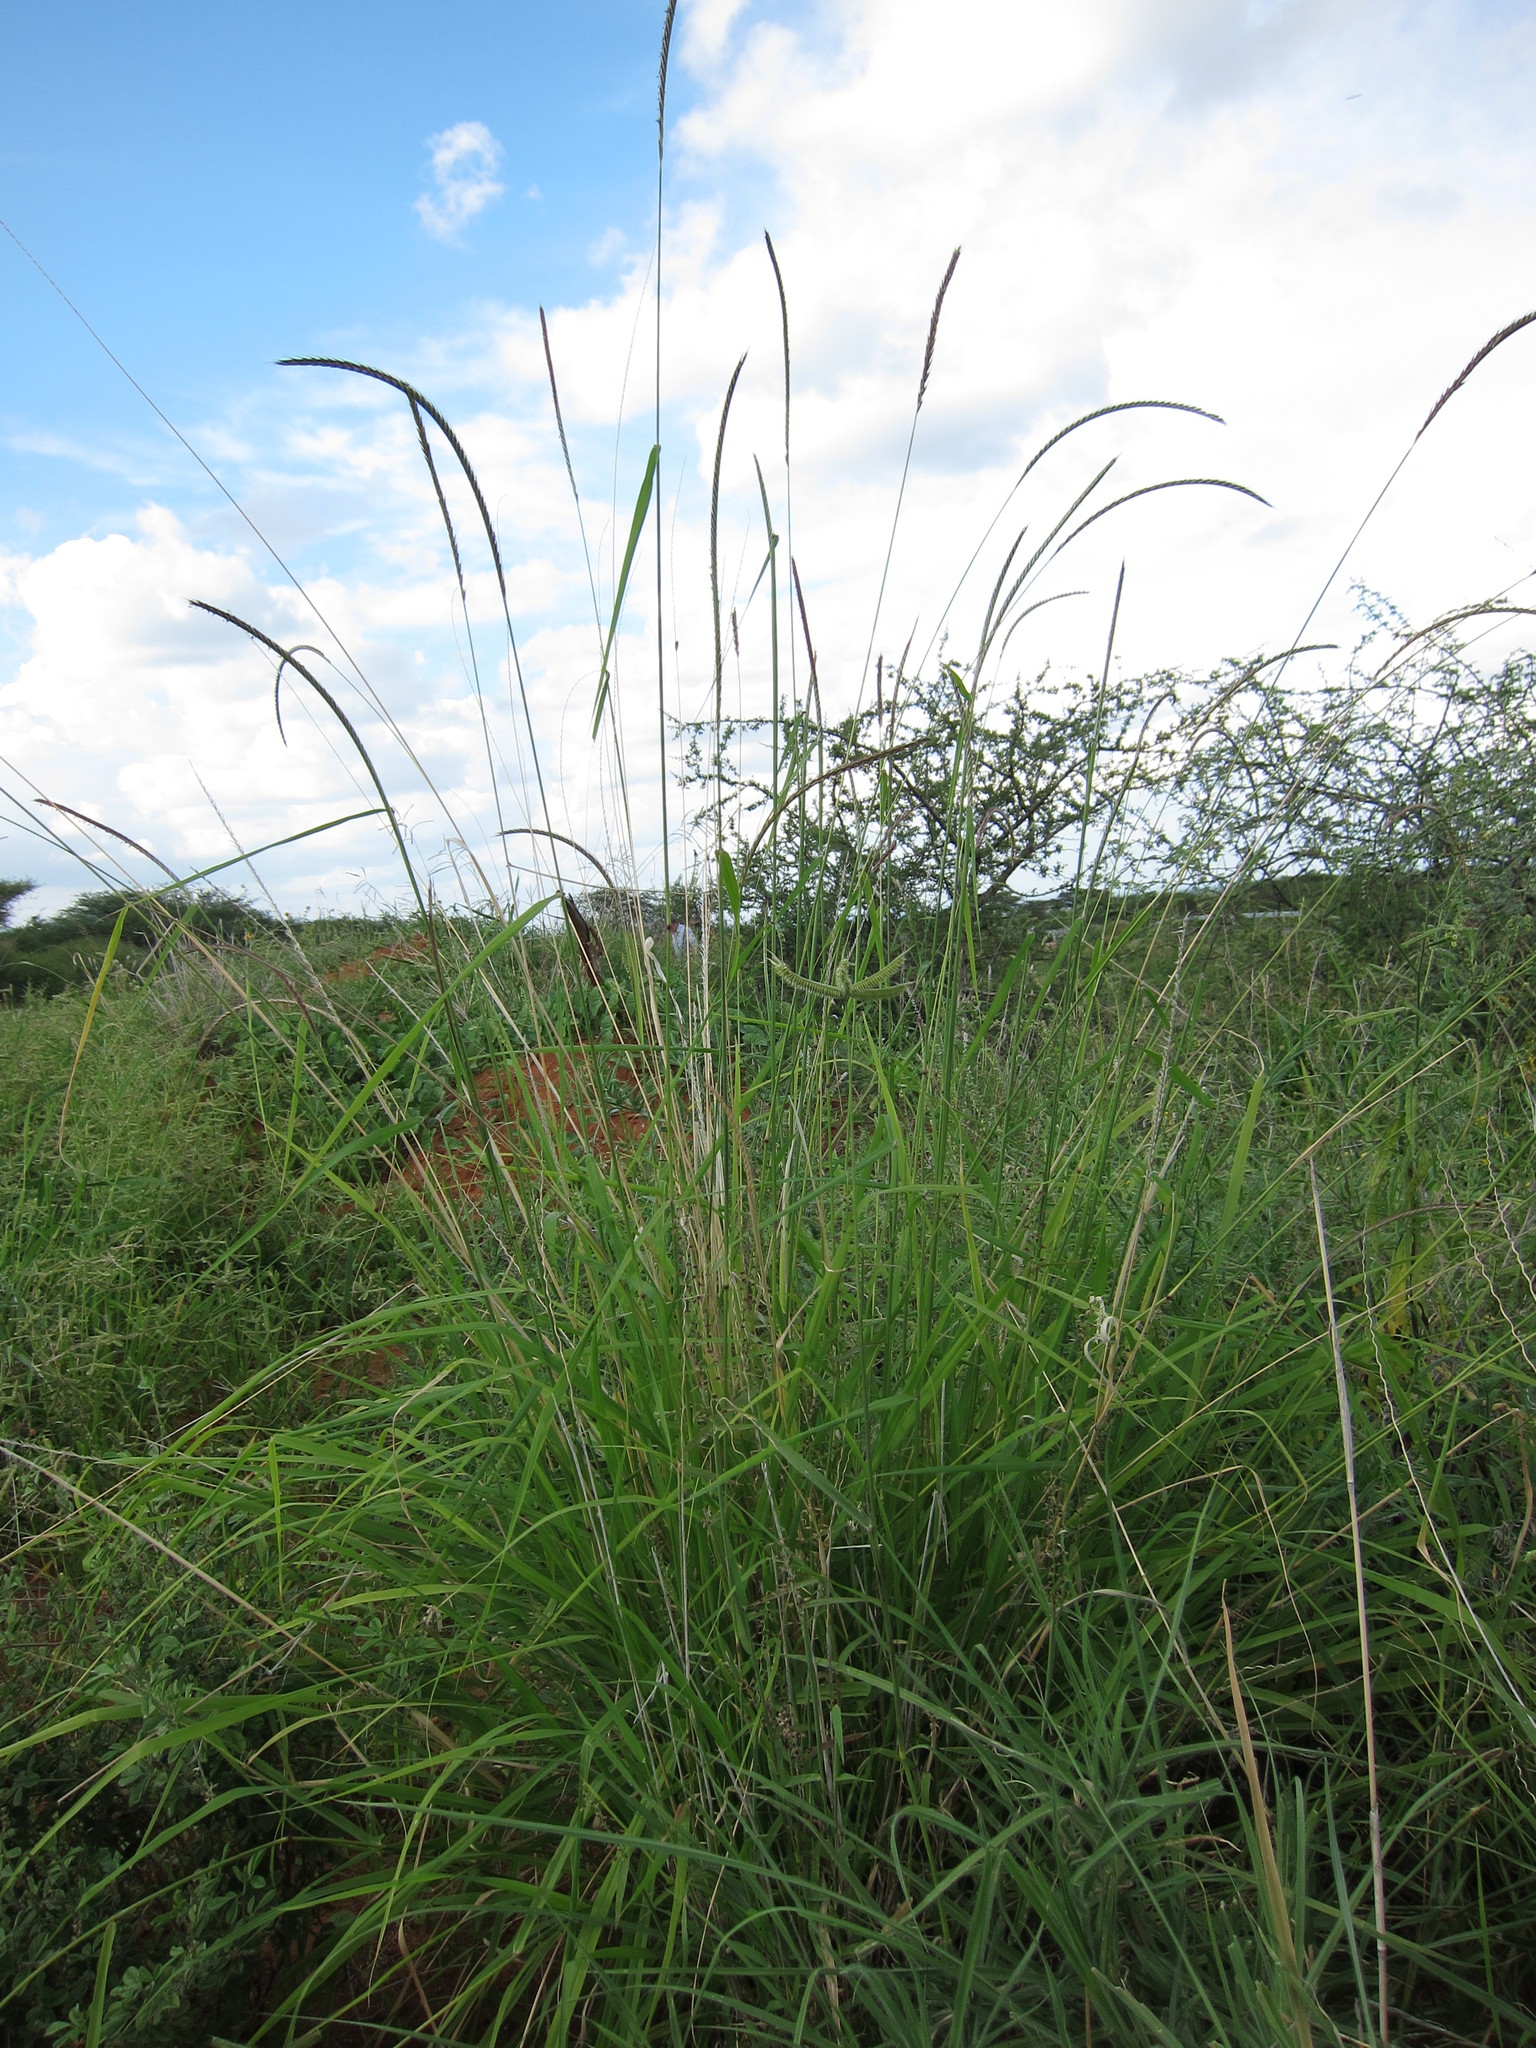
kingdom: Plantae
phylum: Tracheophyta
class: Liliopsida
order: Poales
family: Poaceae
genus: Enteropogon
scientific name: Enteropogon macrostachyus
